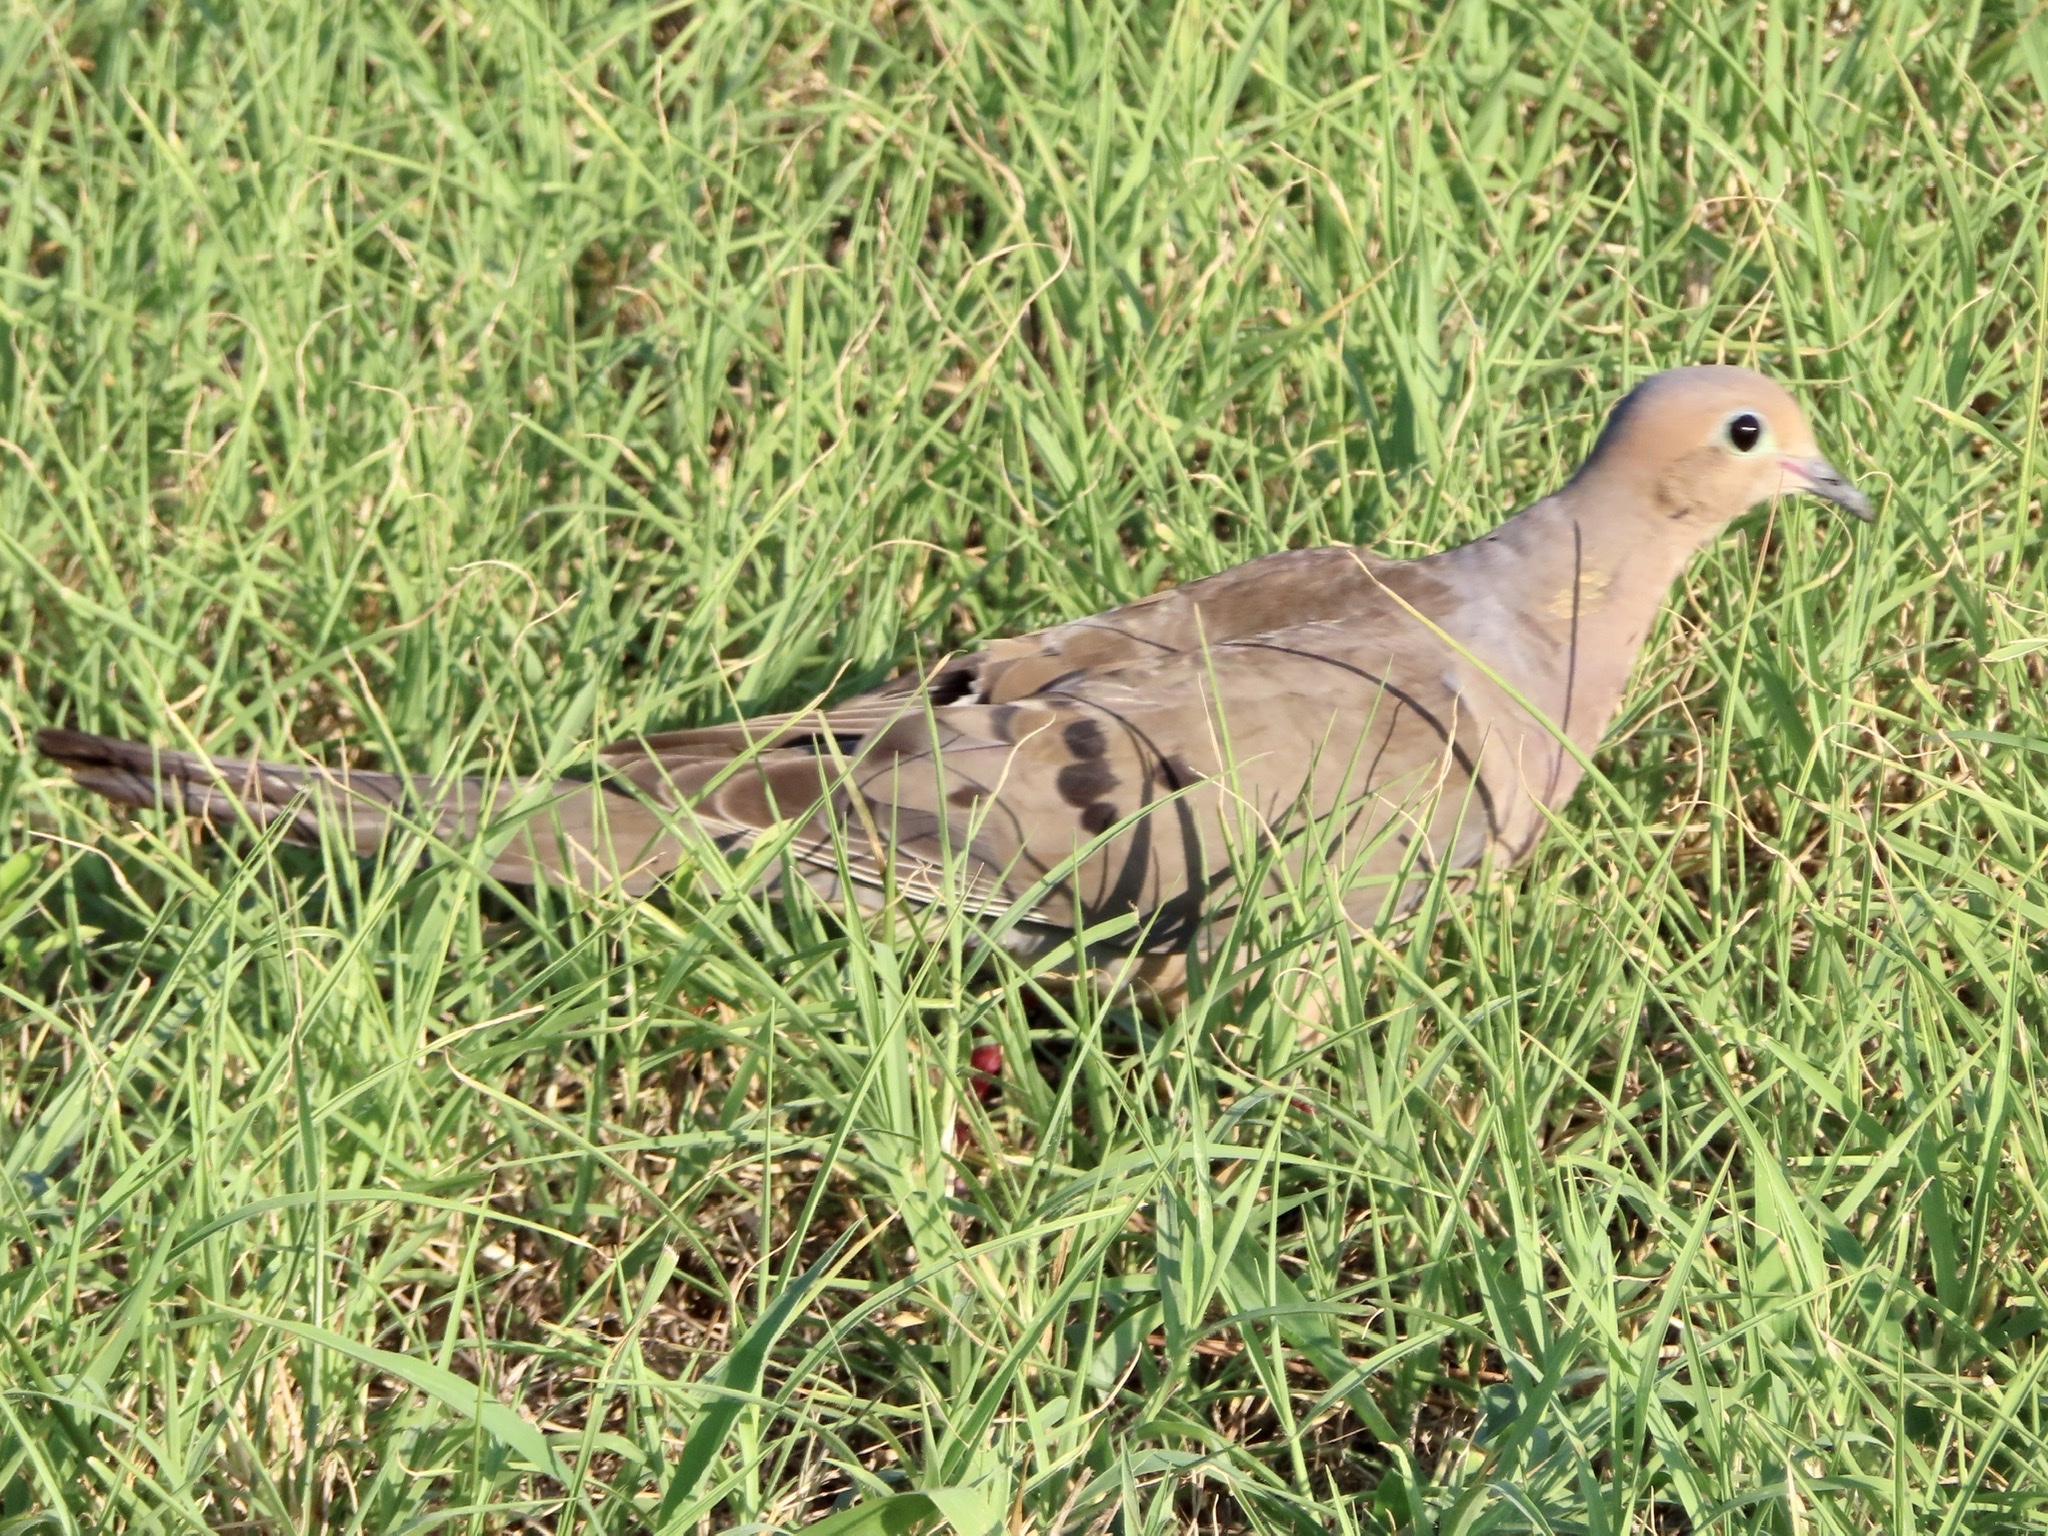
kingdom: Animalia
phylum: Chordata
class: Aves
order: Columbiformes
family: Columbidae
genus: Zenaida
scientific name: Zenaida macroura
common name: Mourning dove
